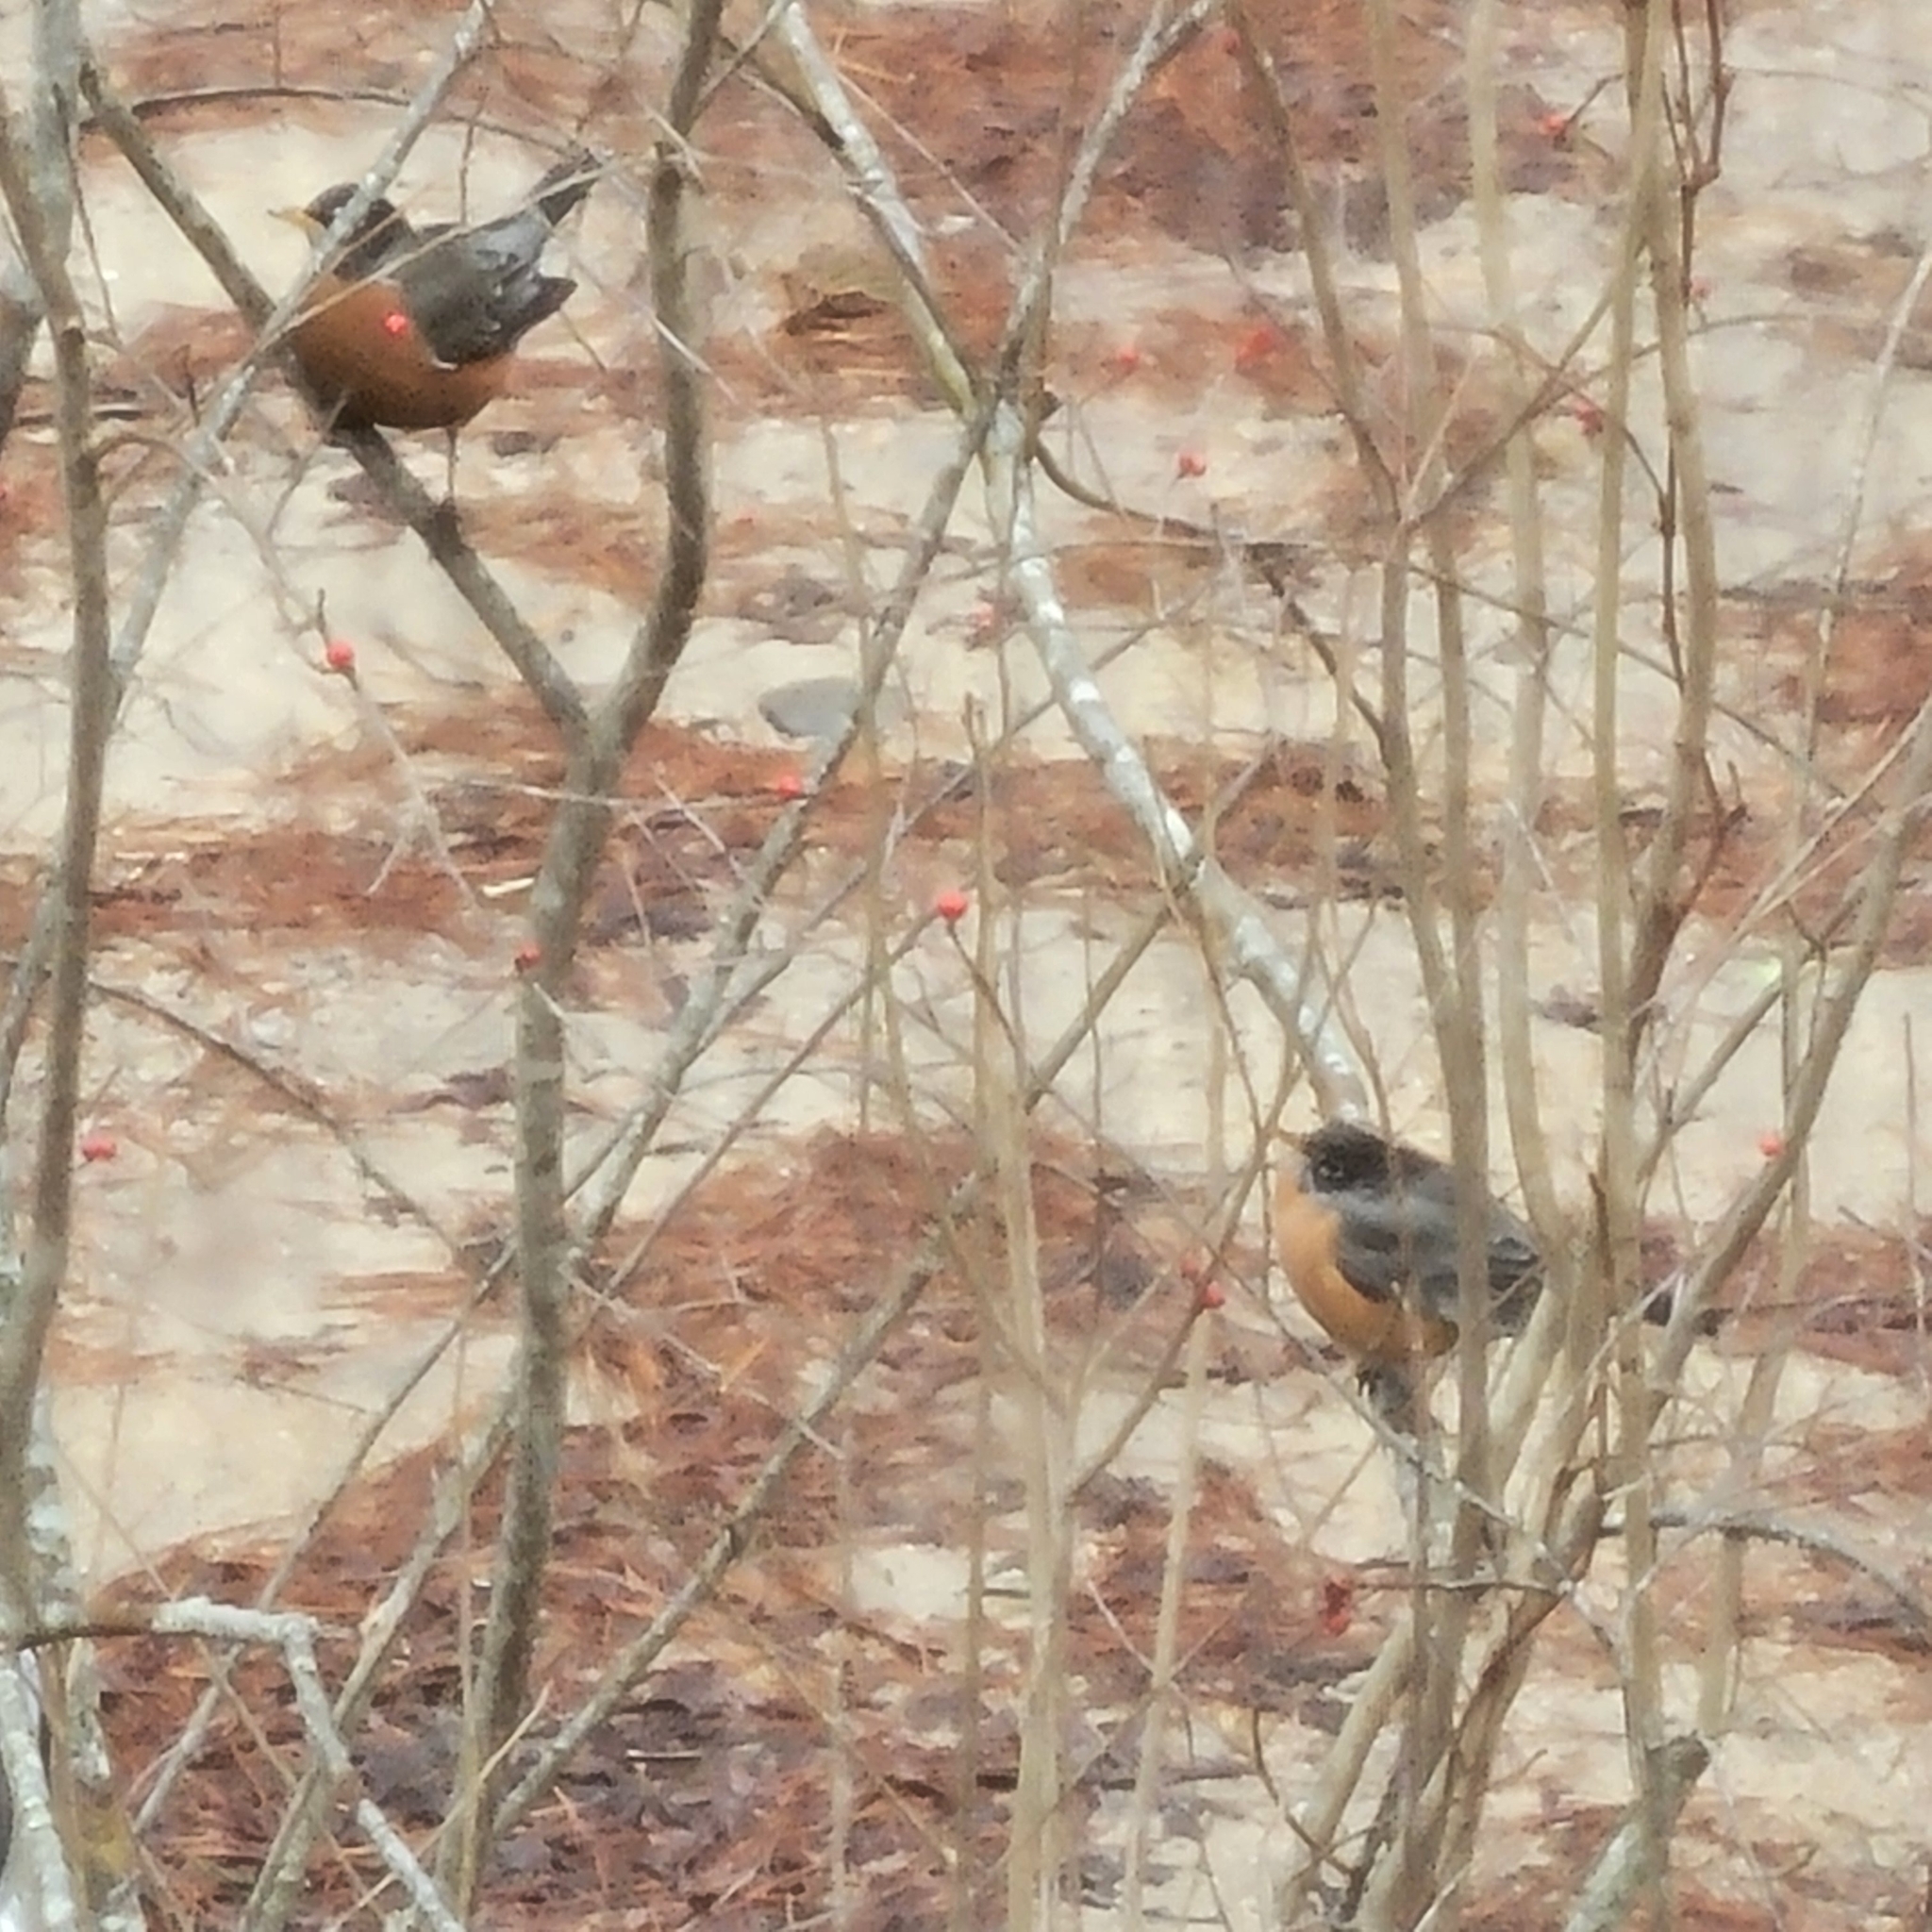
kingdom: Animalia
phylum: Chordata
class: Aves
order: Passeriformes
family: Turdidae
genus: Turdus
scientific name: Turdus migratorius
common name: American robin
